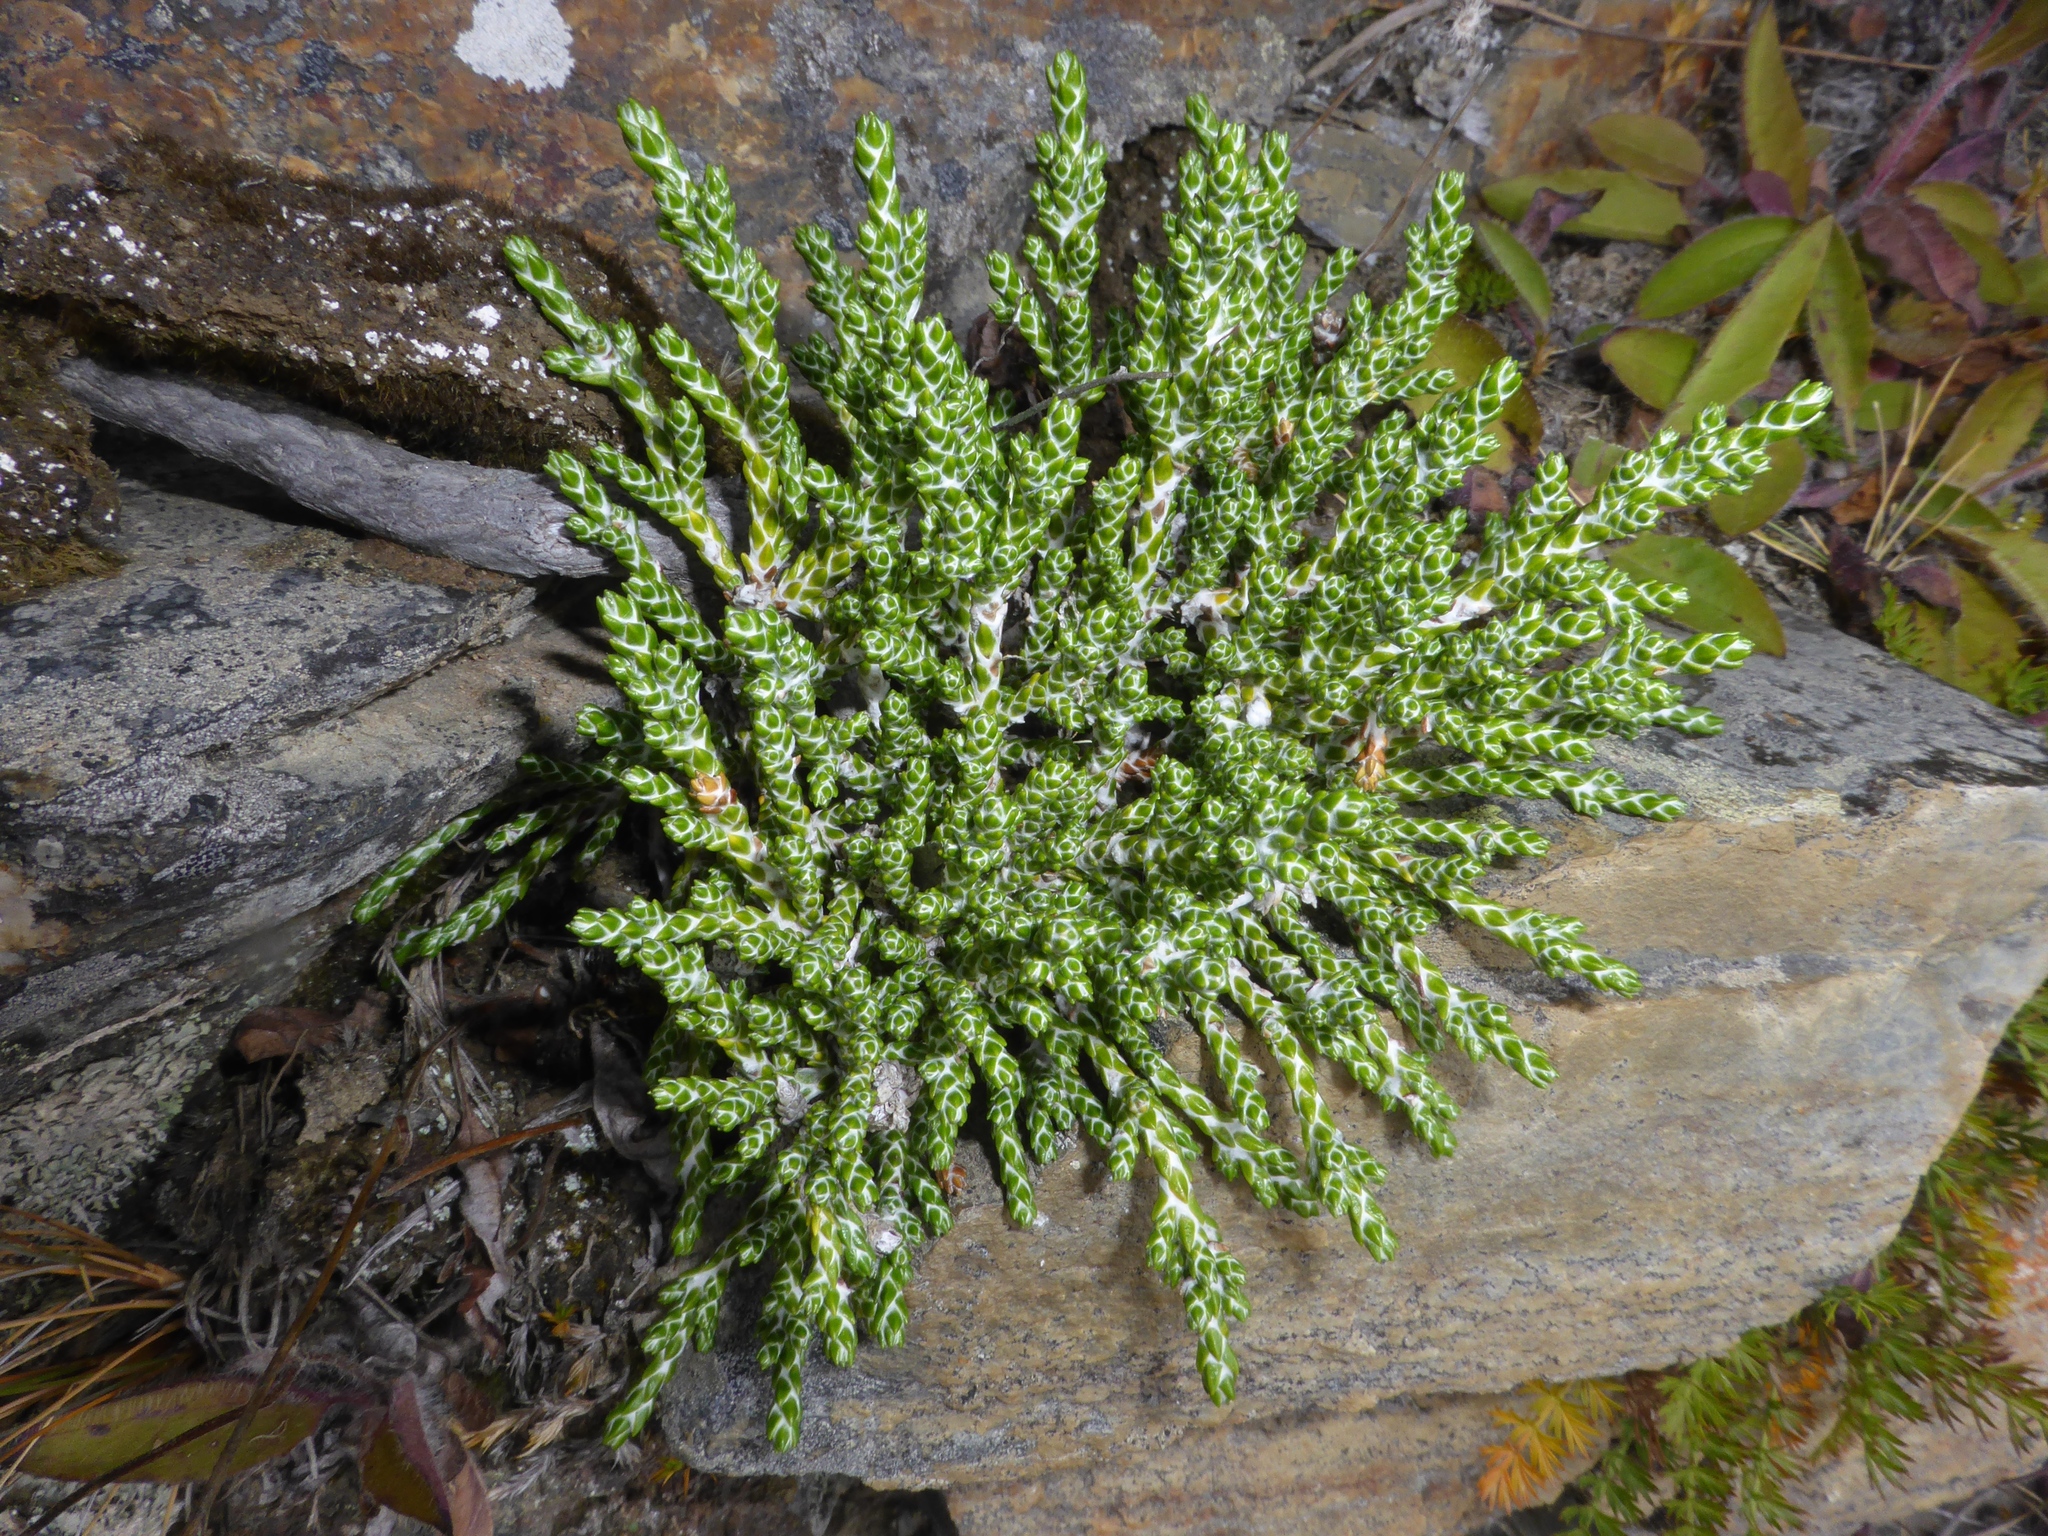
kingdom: Plantae
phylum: Tracheophyta
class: Magnoliopsida
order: Asterales
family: Asteraceae
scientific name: Asteraceae
